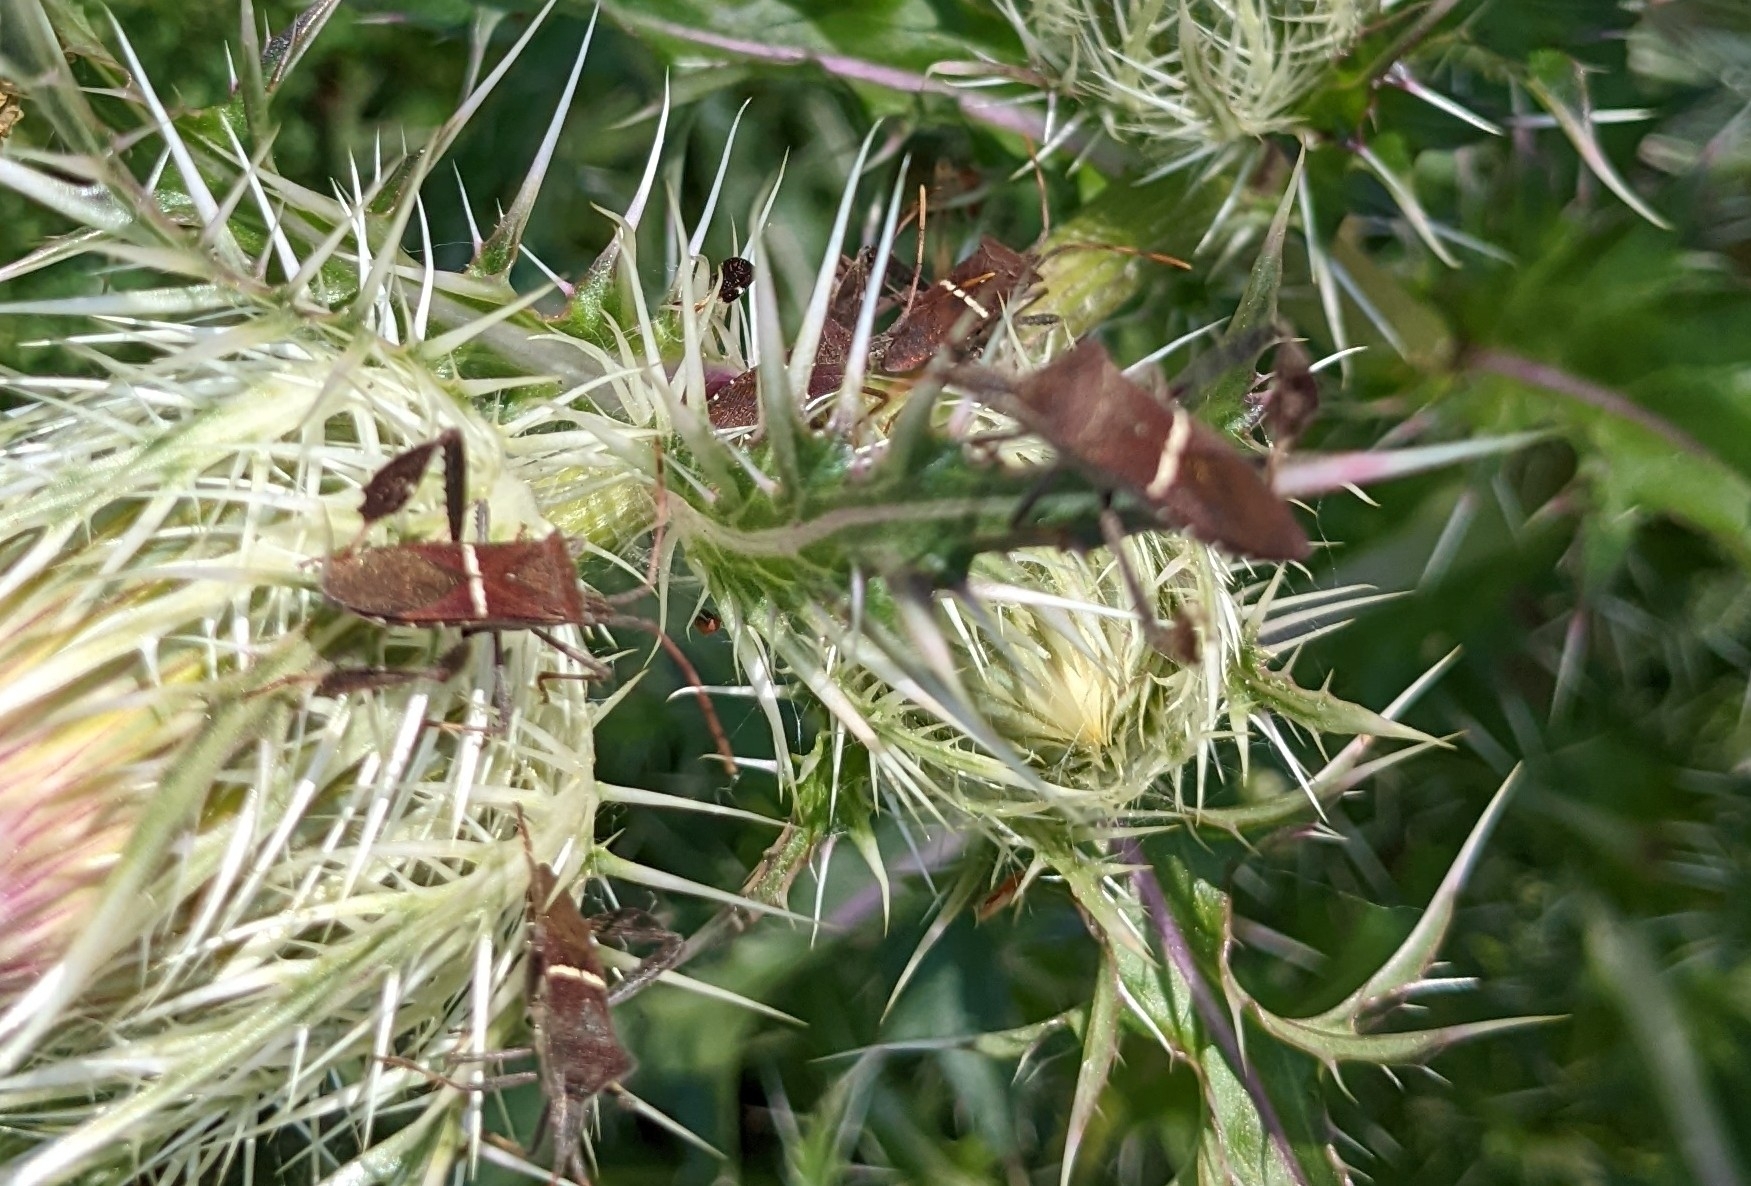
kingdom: Animalia
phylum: Arthropoda
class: Insecta
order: Hemiptera
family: Coreidae
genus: Leptoglossus
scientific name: Leptoglossus phyllopus
